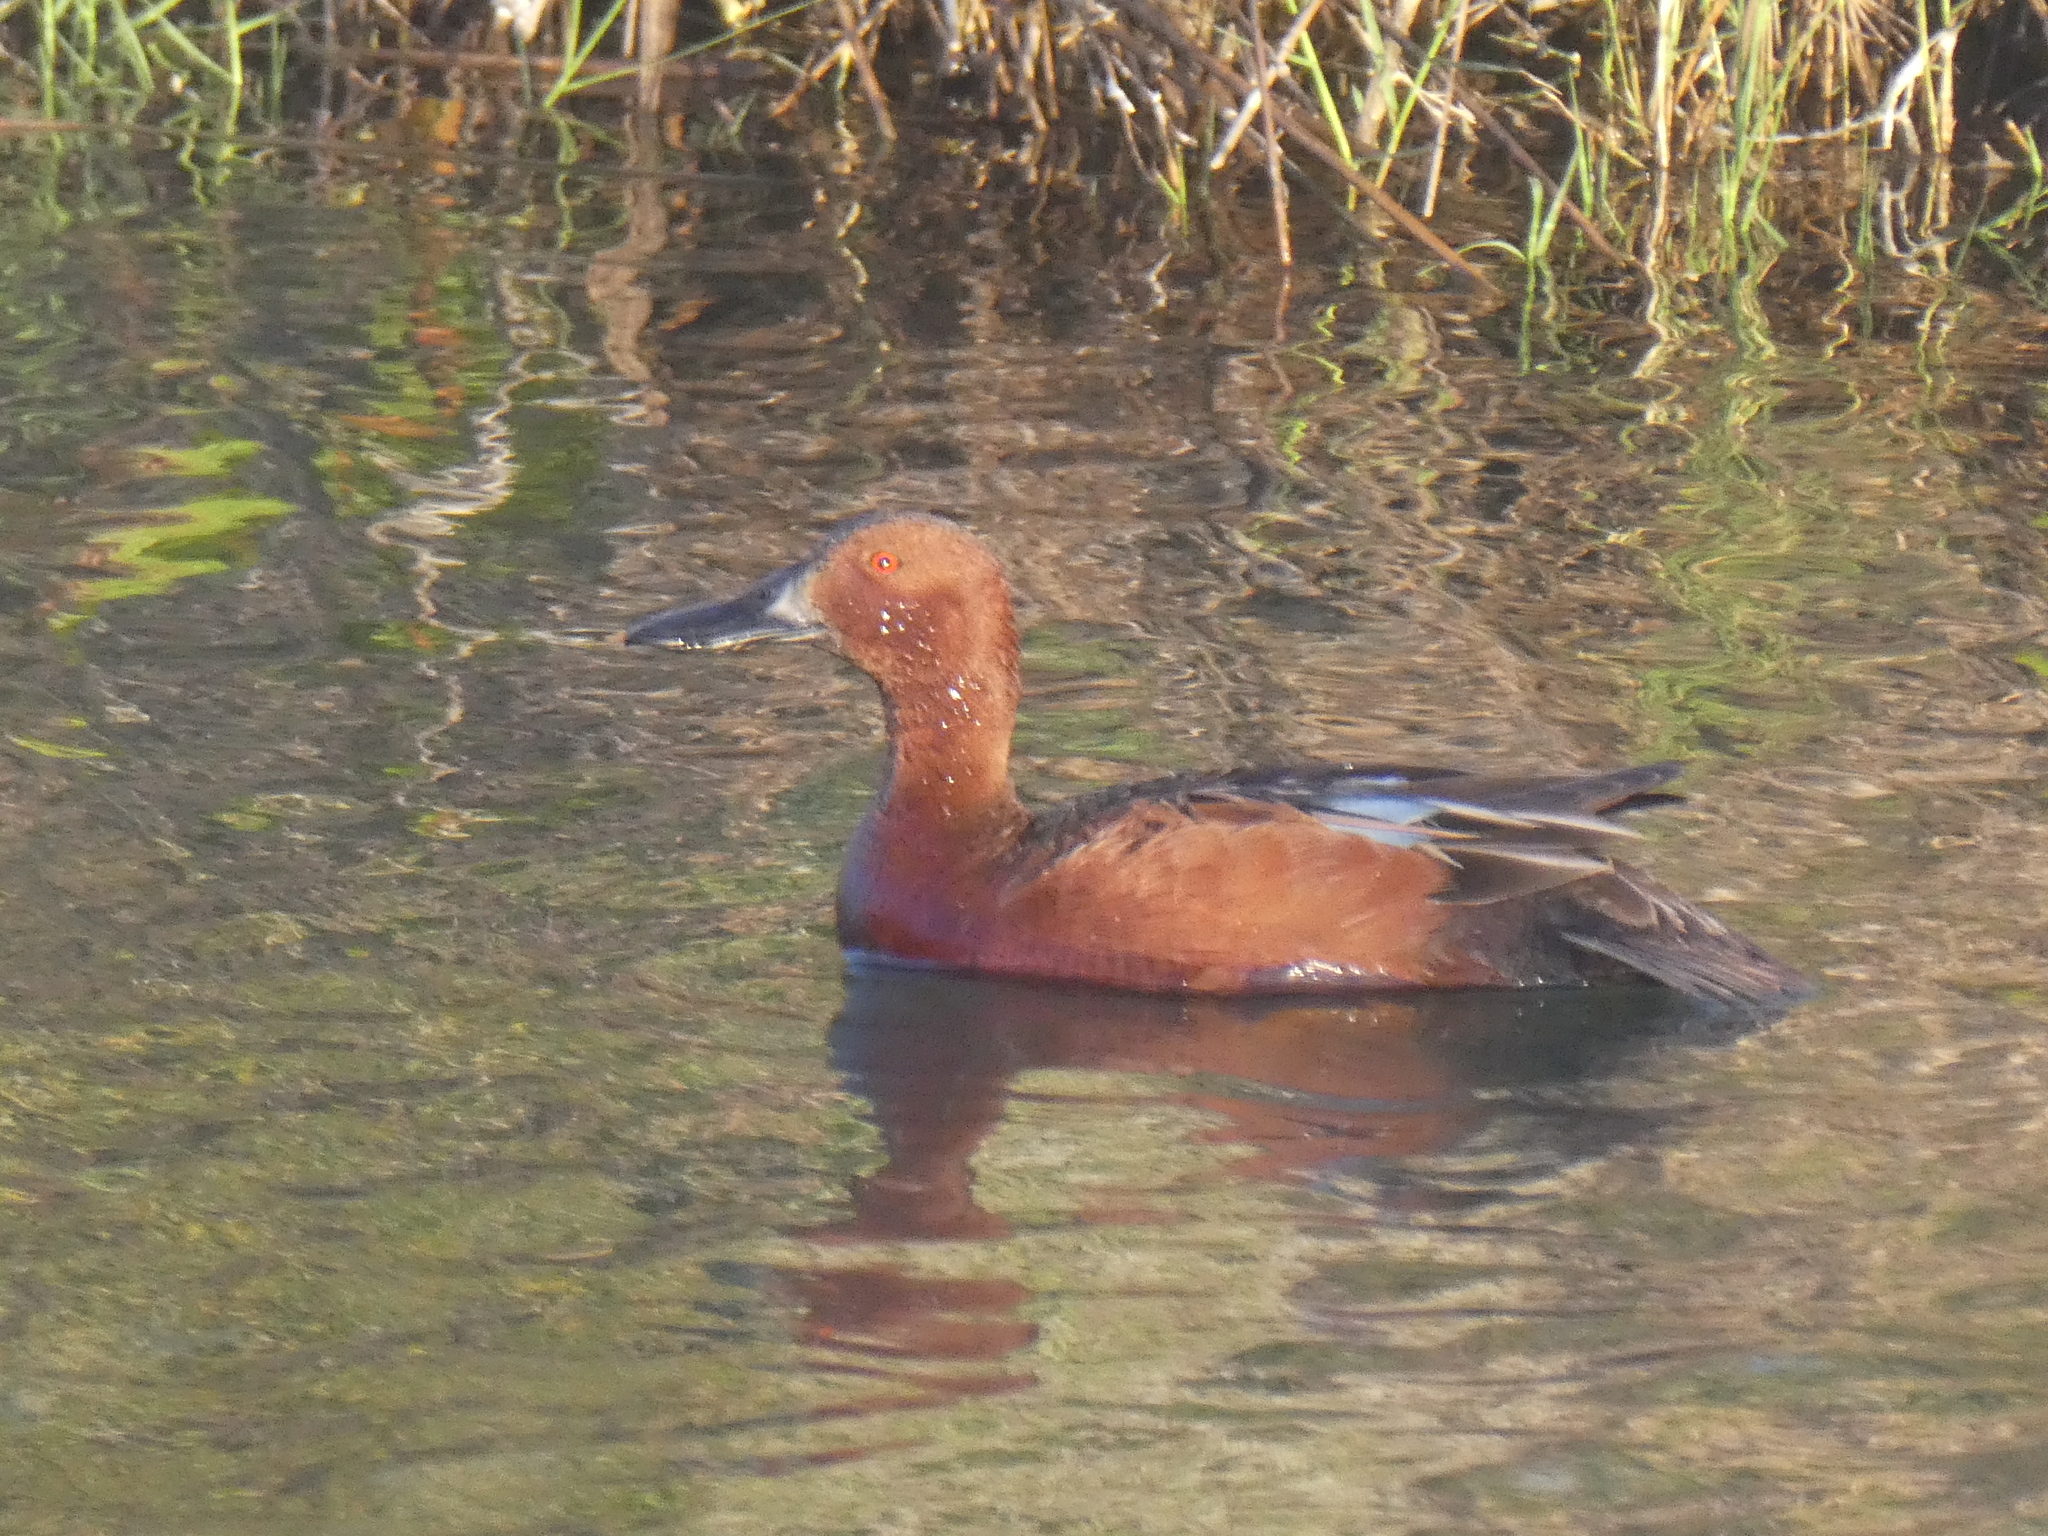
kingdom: Animalia
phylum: Chordata
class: Aves
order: Anseriformes
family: Anatidae
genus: Spatula
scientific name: Spatula cyanoptera
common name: Cinnamon teal
